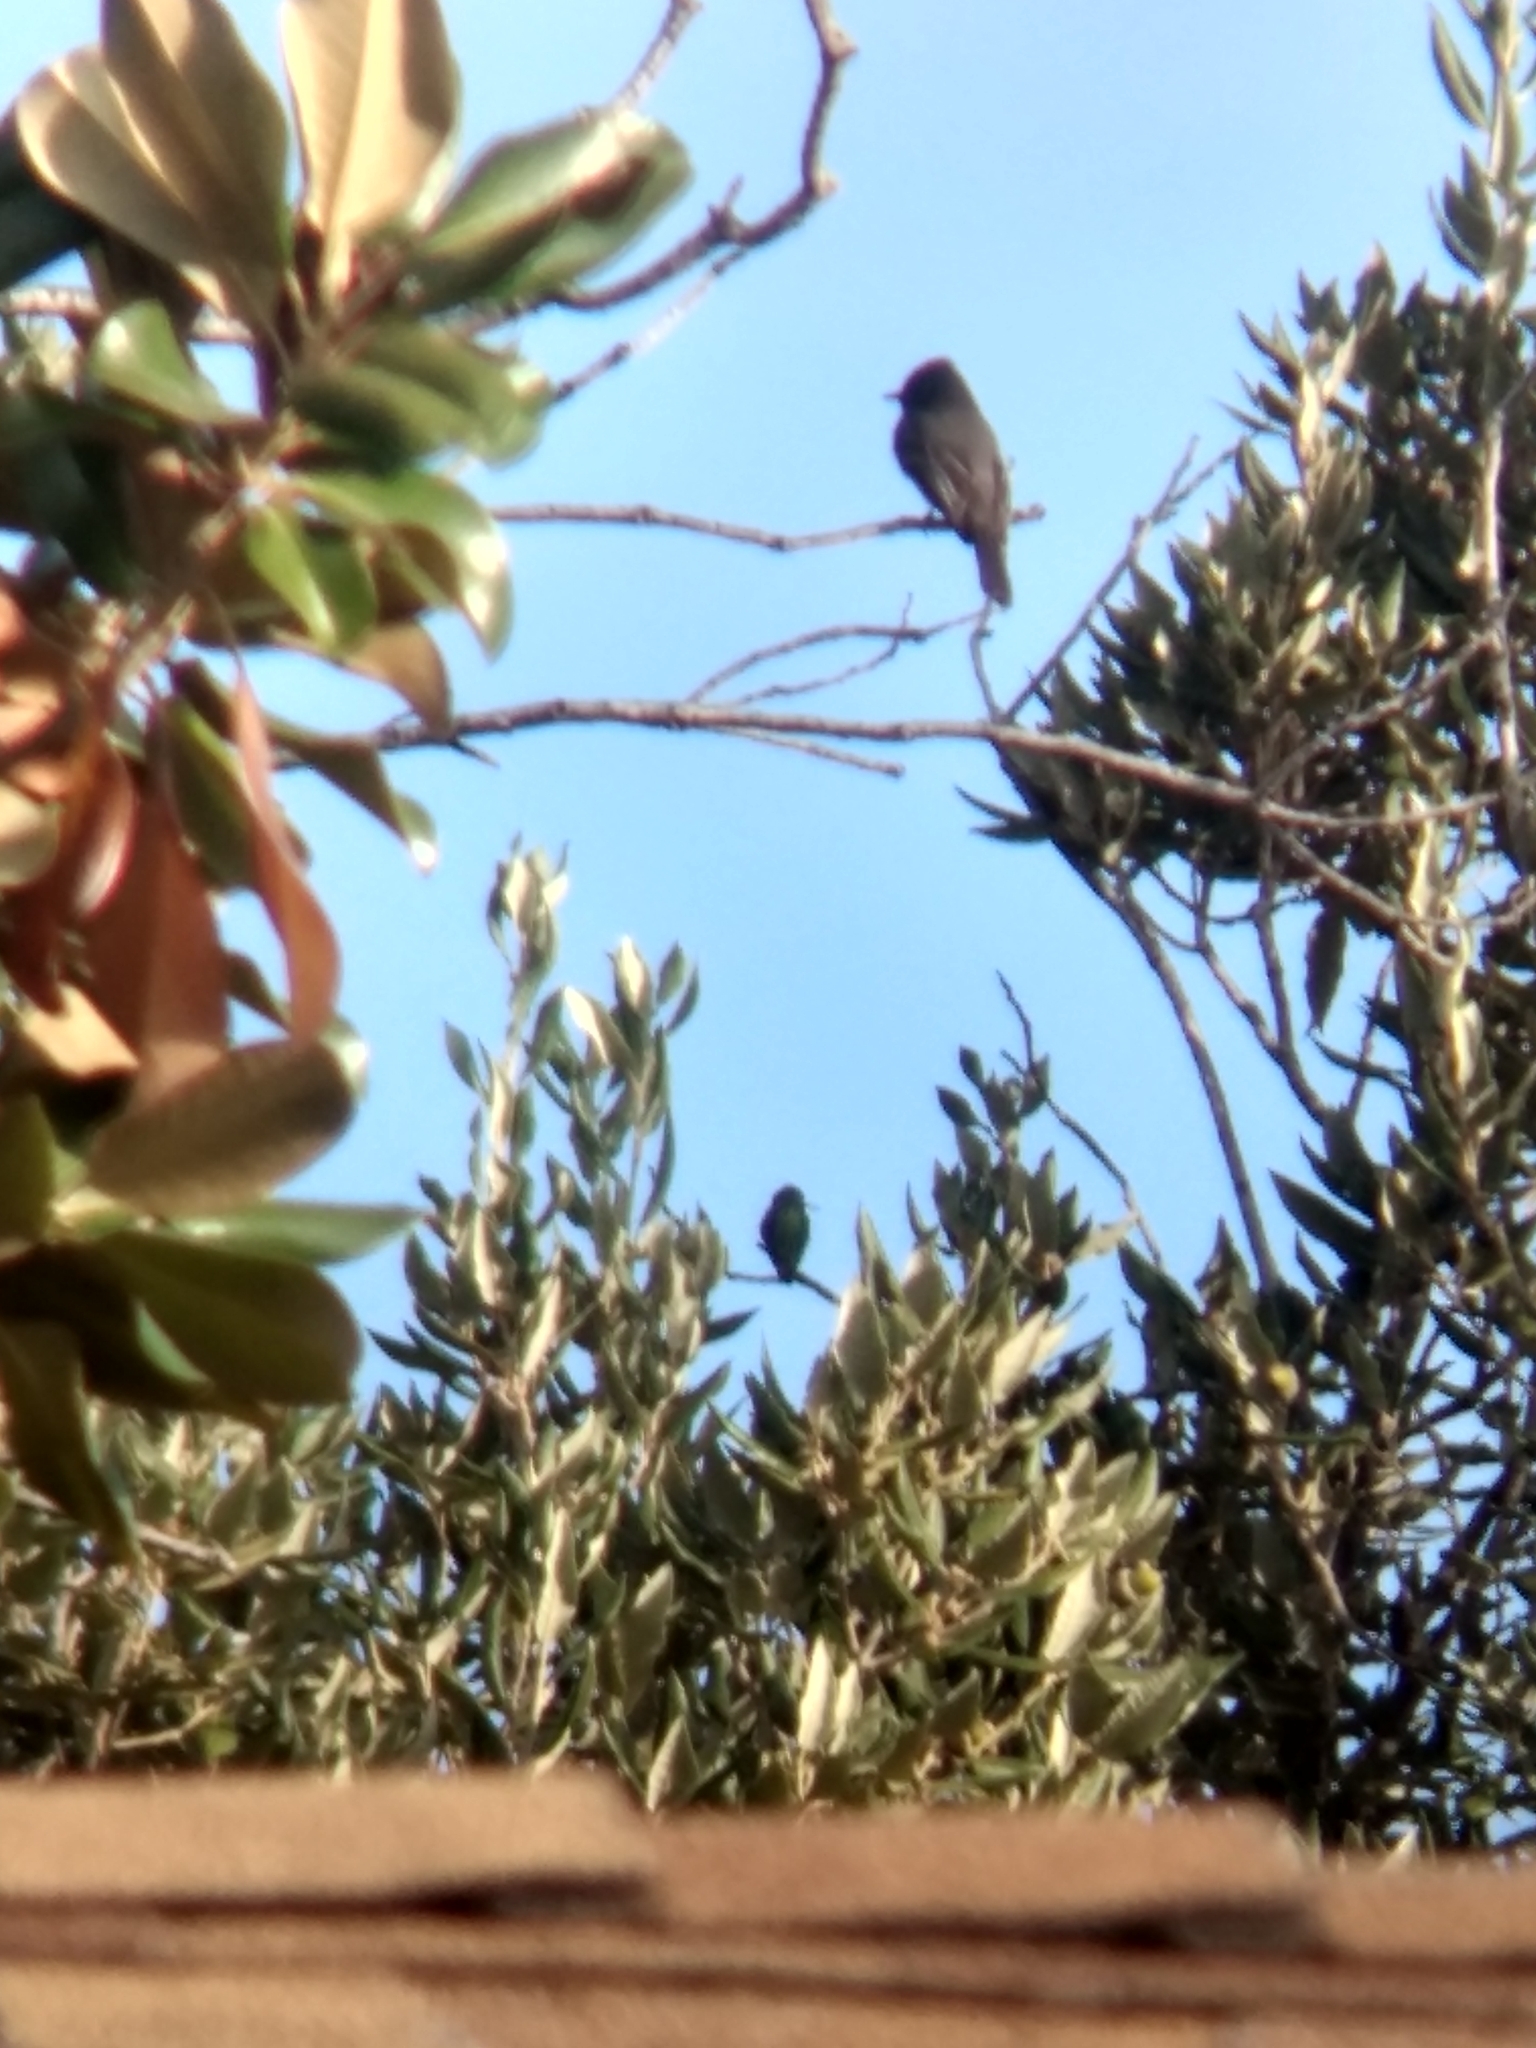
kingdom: Animalia
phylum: Chordata
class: Aves
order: Passeriformes
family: Tyrannidae
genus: Sayornis
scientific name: Sayornis nigricans
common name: Black phoebe
